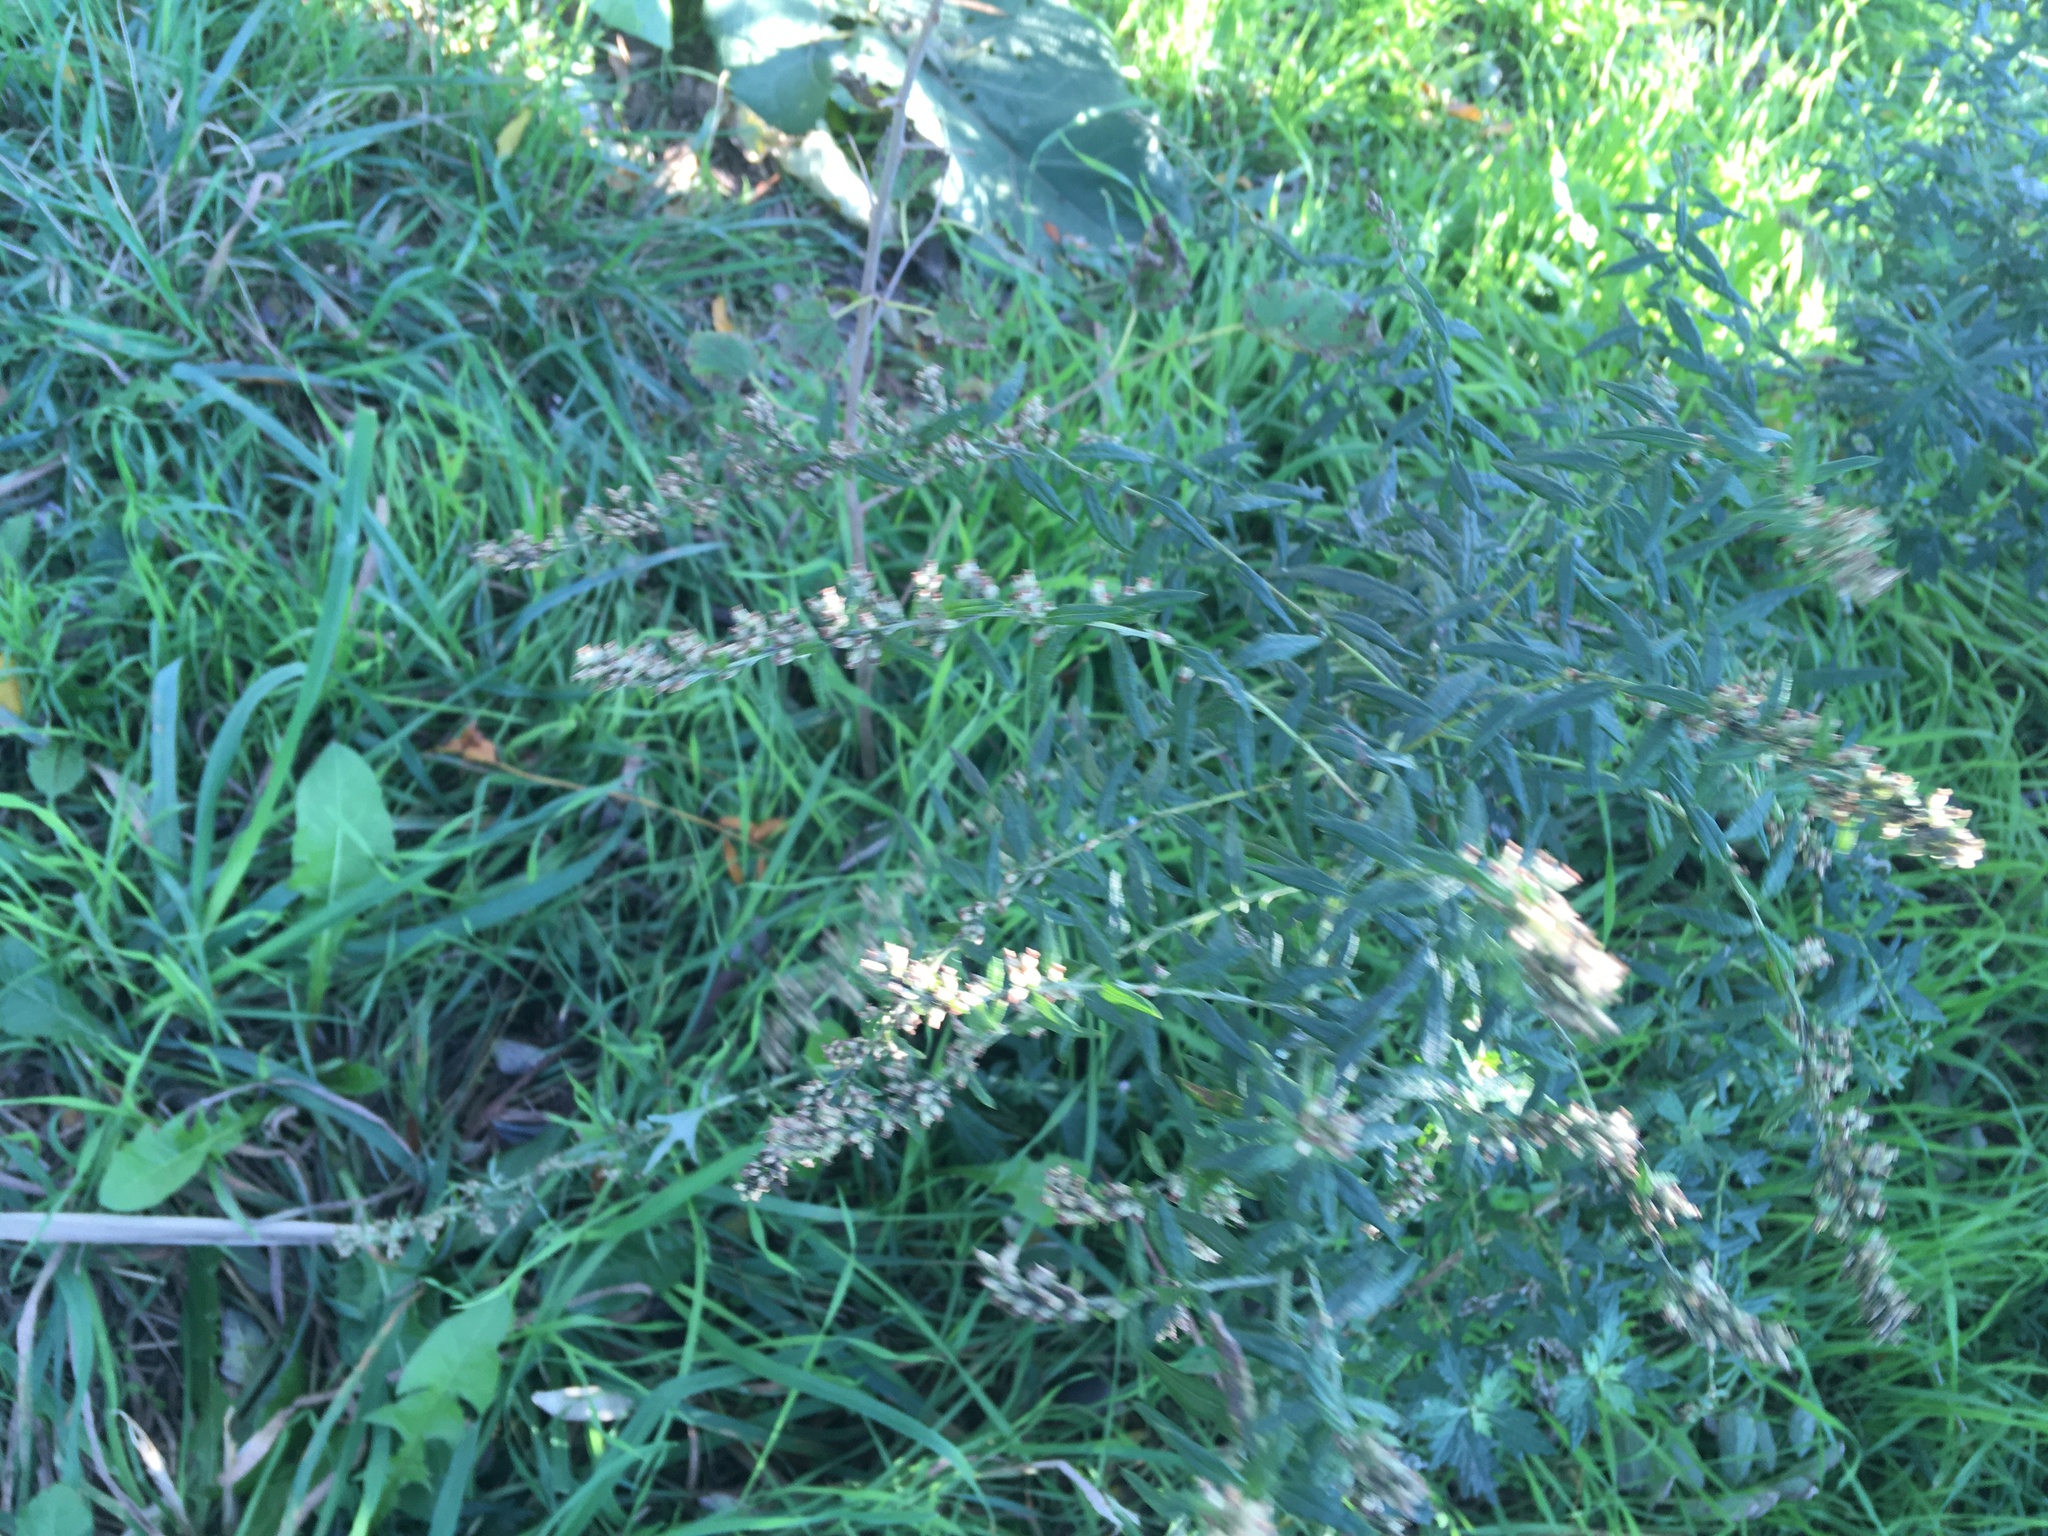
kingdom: Plantae
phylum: Tracheophyta
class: Magnoliopsida
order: Asterales
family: Asteraceae
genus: Artemisia
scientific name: Artemisia vulgaris
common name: Mugwort
